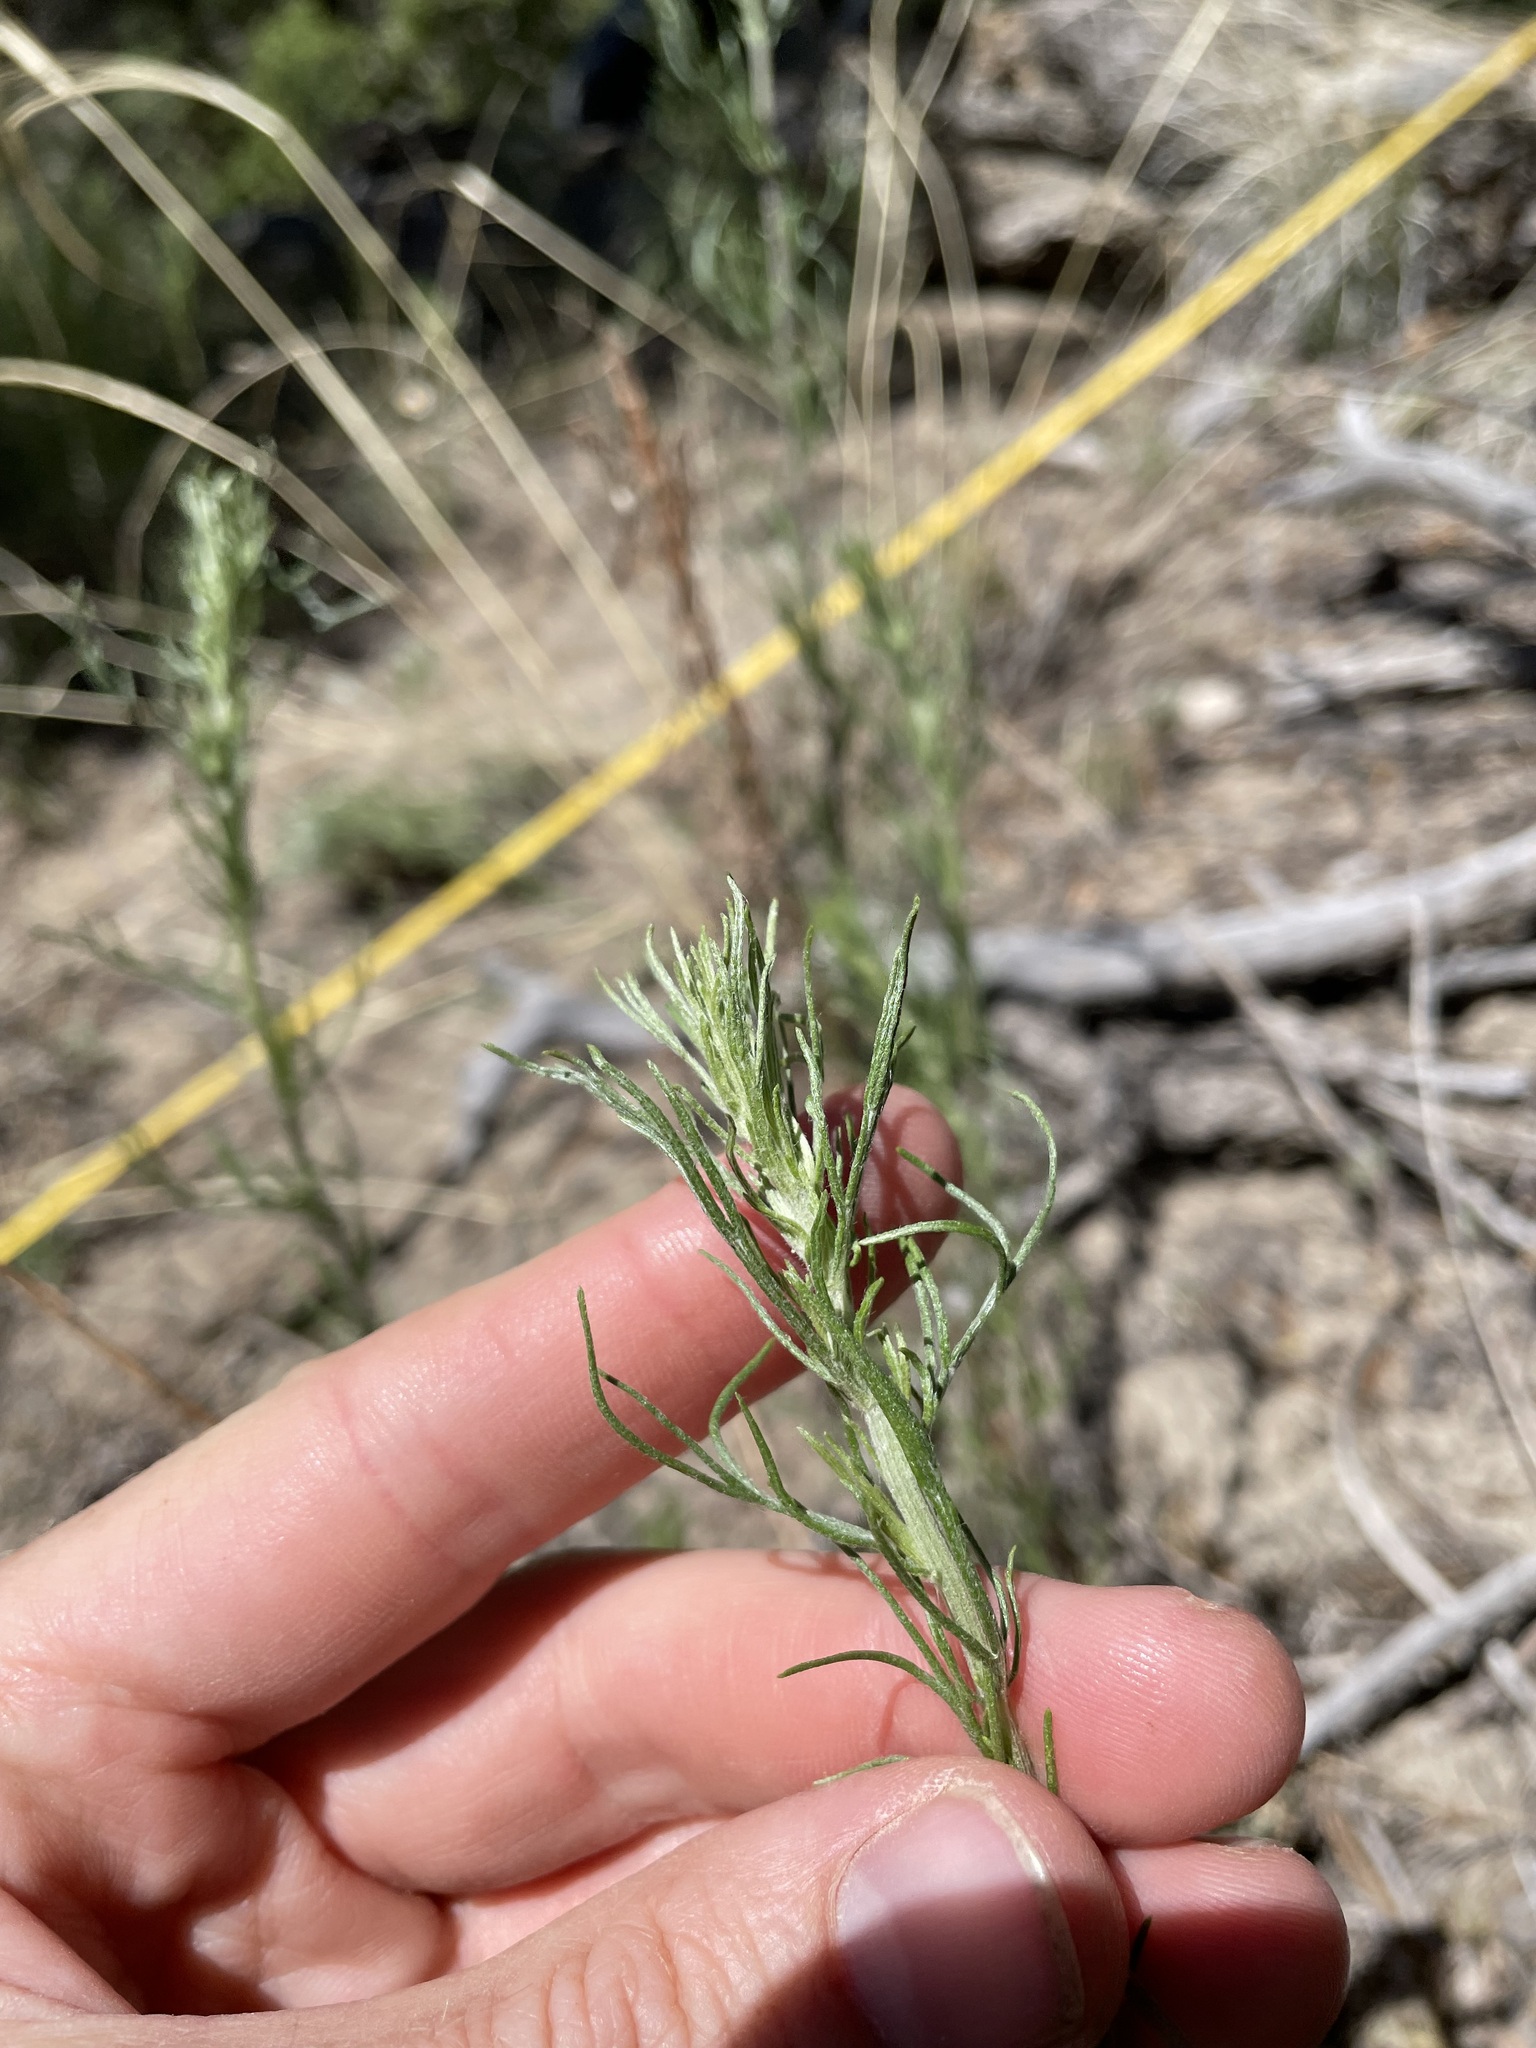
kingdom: Plantae
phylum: Tracheophyta
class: Magnoliopsida
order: Asterales
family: Asteraceae
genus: Artemisia
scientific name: Artemisia carruthii
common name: Carruth wormwood
